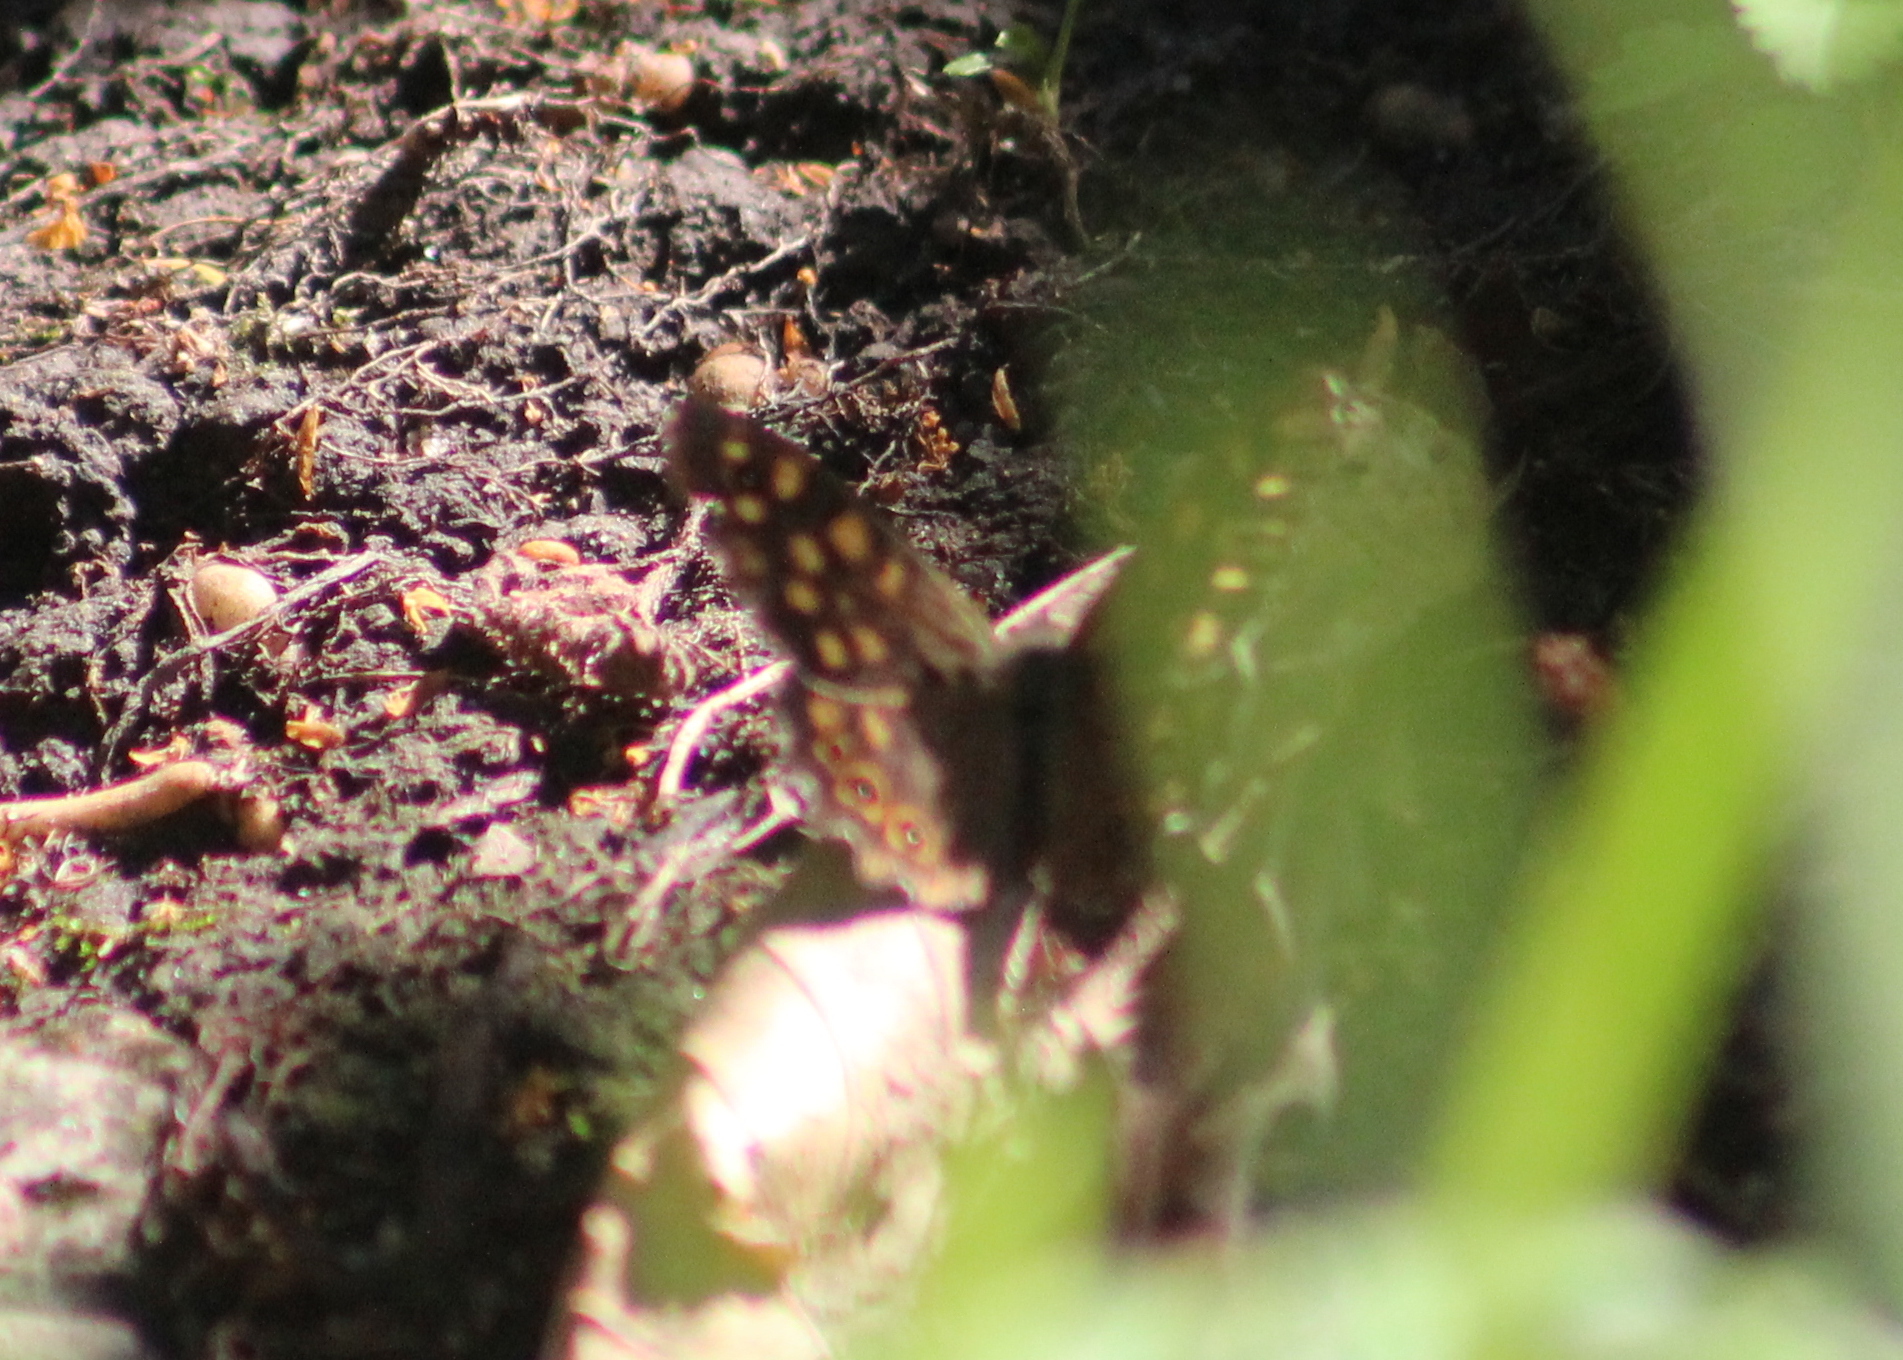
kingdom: Animalia
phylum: Arthropoda
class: Insecta
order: Lepidoptera
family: Nymphalidae
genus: Pararge
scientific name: Pararge aegeria
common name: Speckled wood
